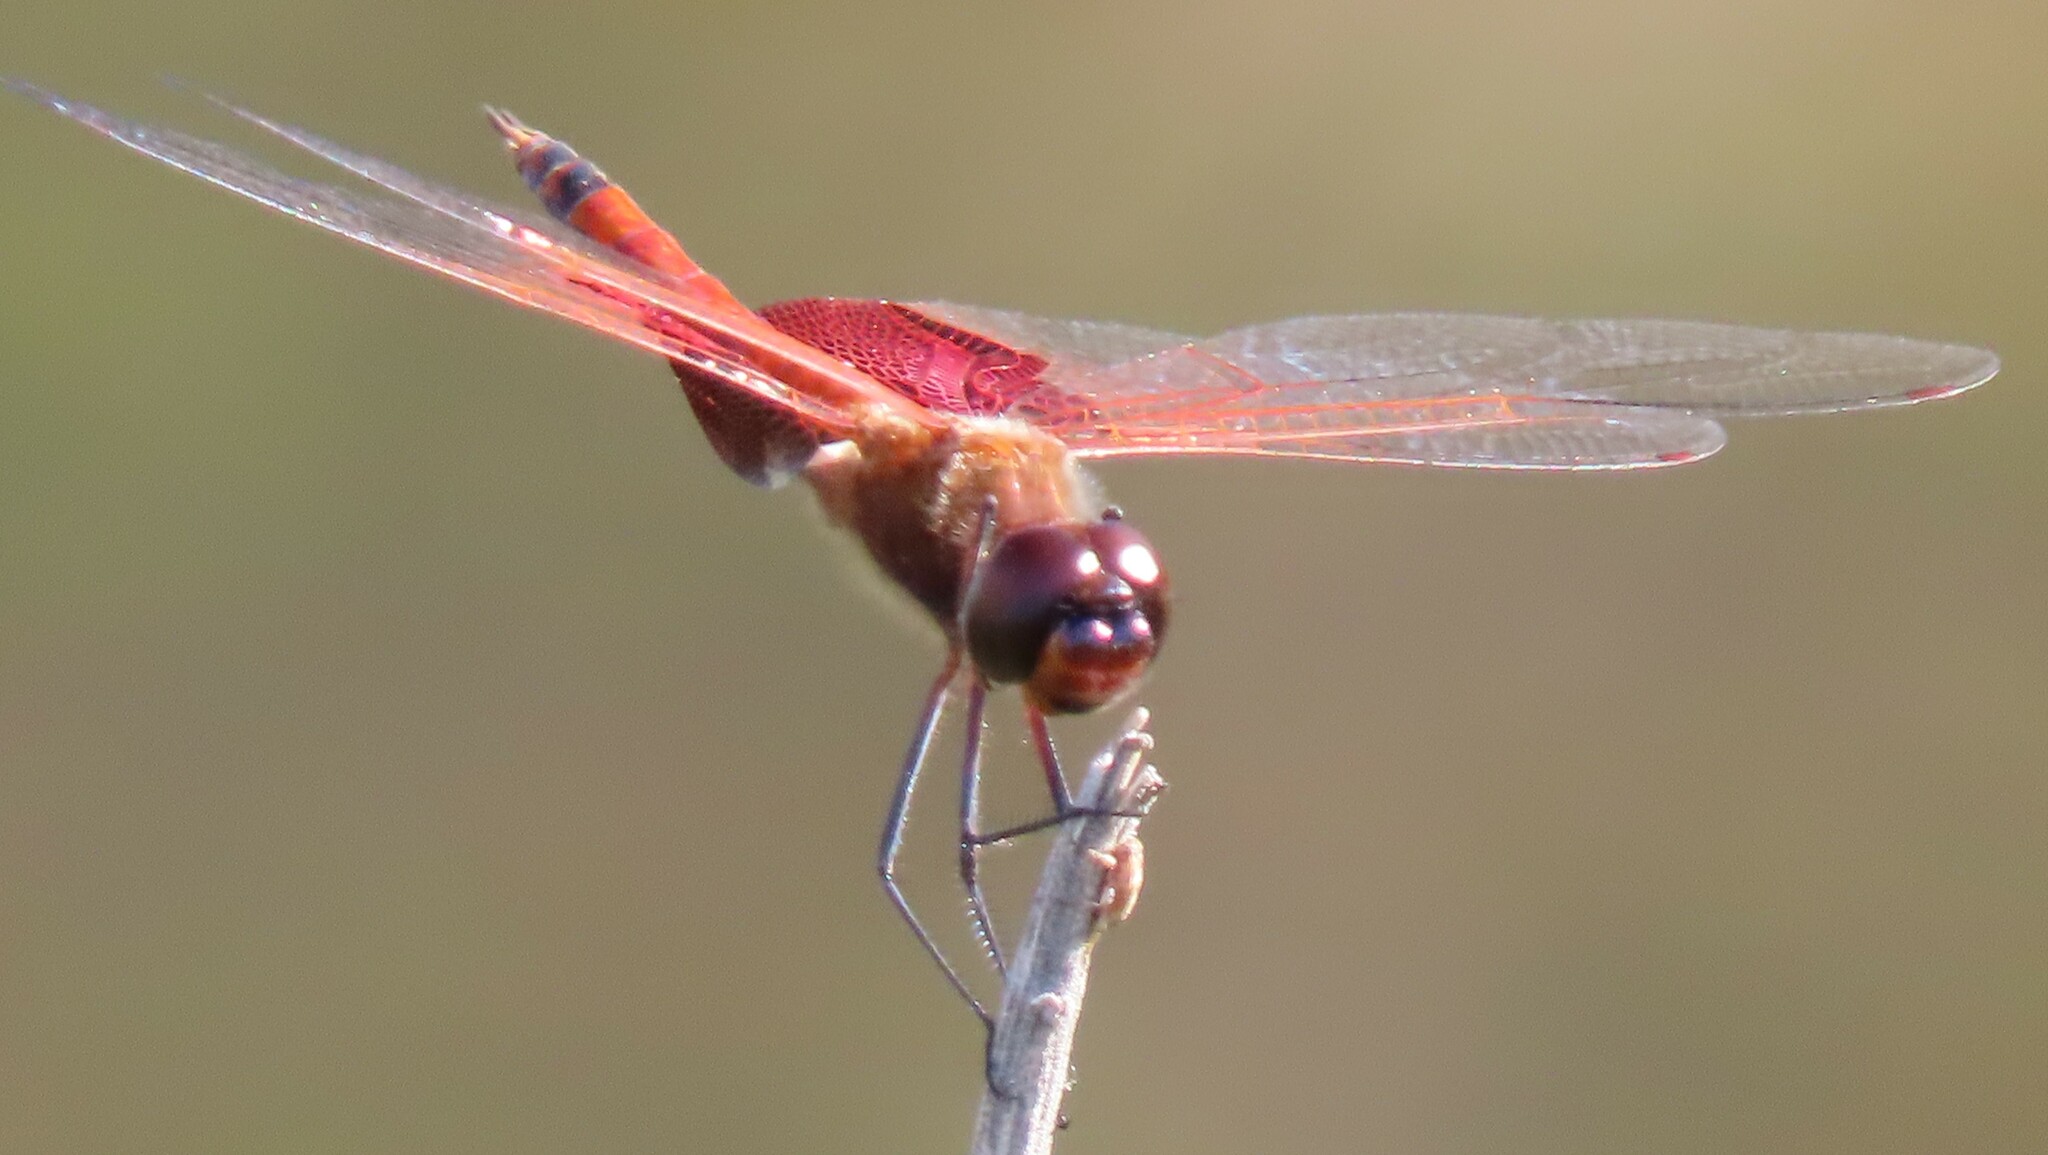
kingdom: Animalia
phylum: Arthropoda
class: Insecta
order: Odonata
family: Libellulidae
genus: Tramea
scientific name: Tramea carolina
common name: Carolina saddlebags
